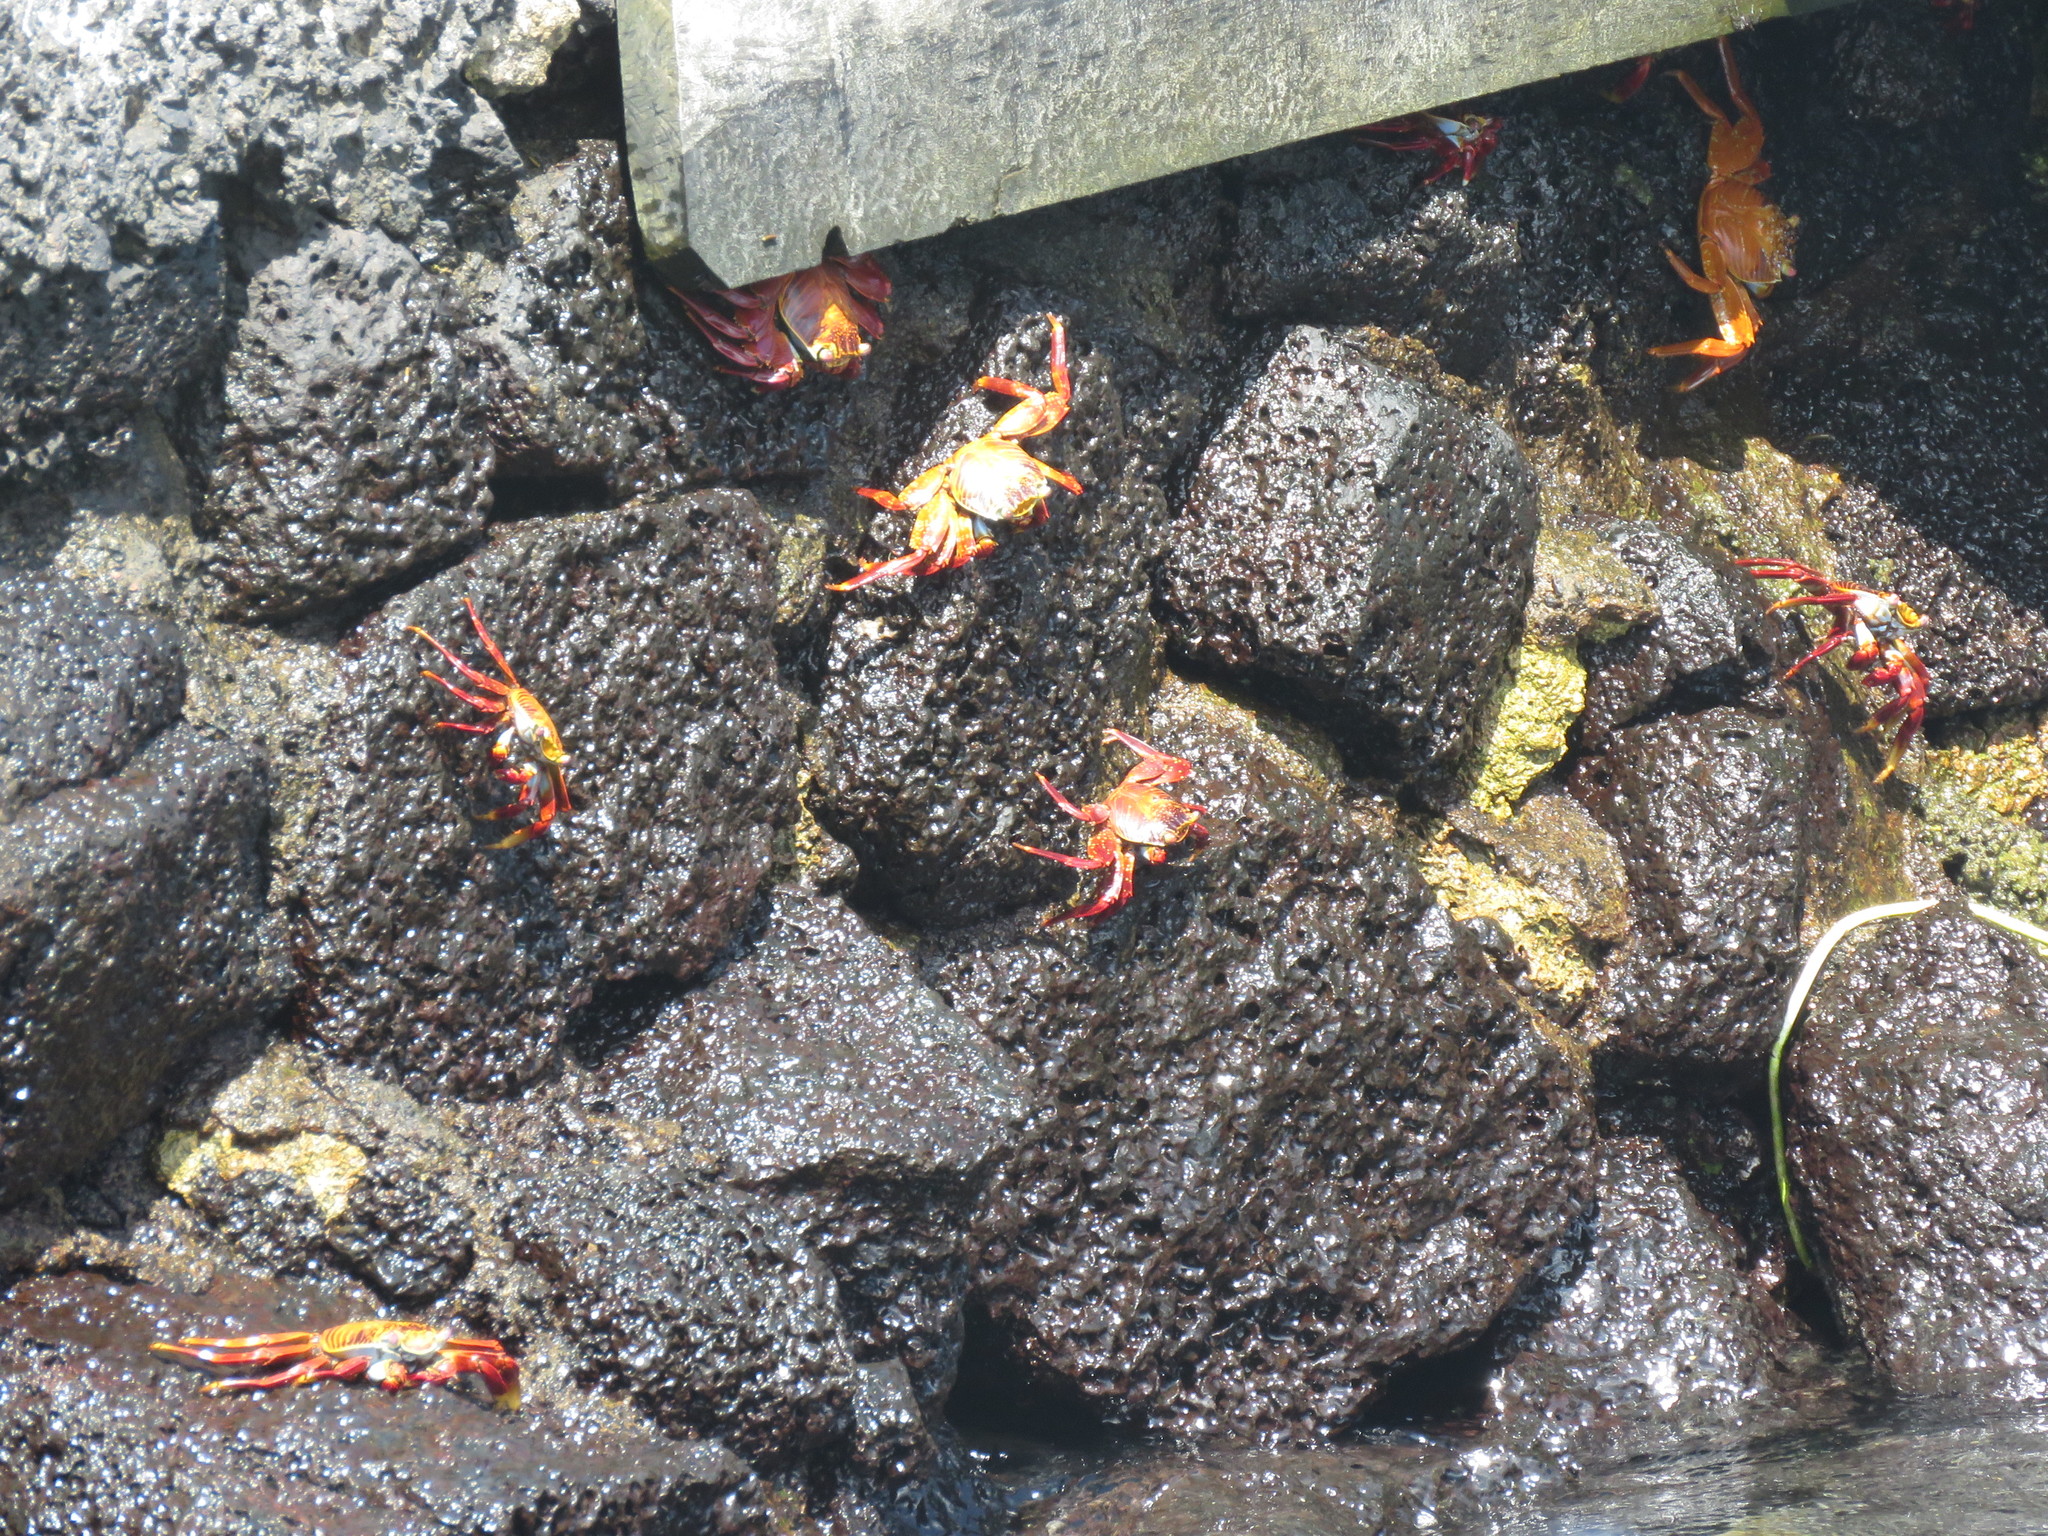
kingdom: Animalia
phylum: Arthropoda
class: Malacostraca
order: Decapoda
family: Grapsidae
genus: Grapsus
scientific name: Grapsus grapsus
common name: Sally lightfoot
